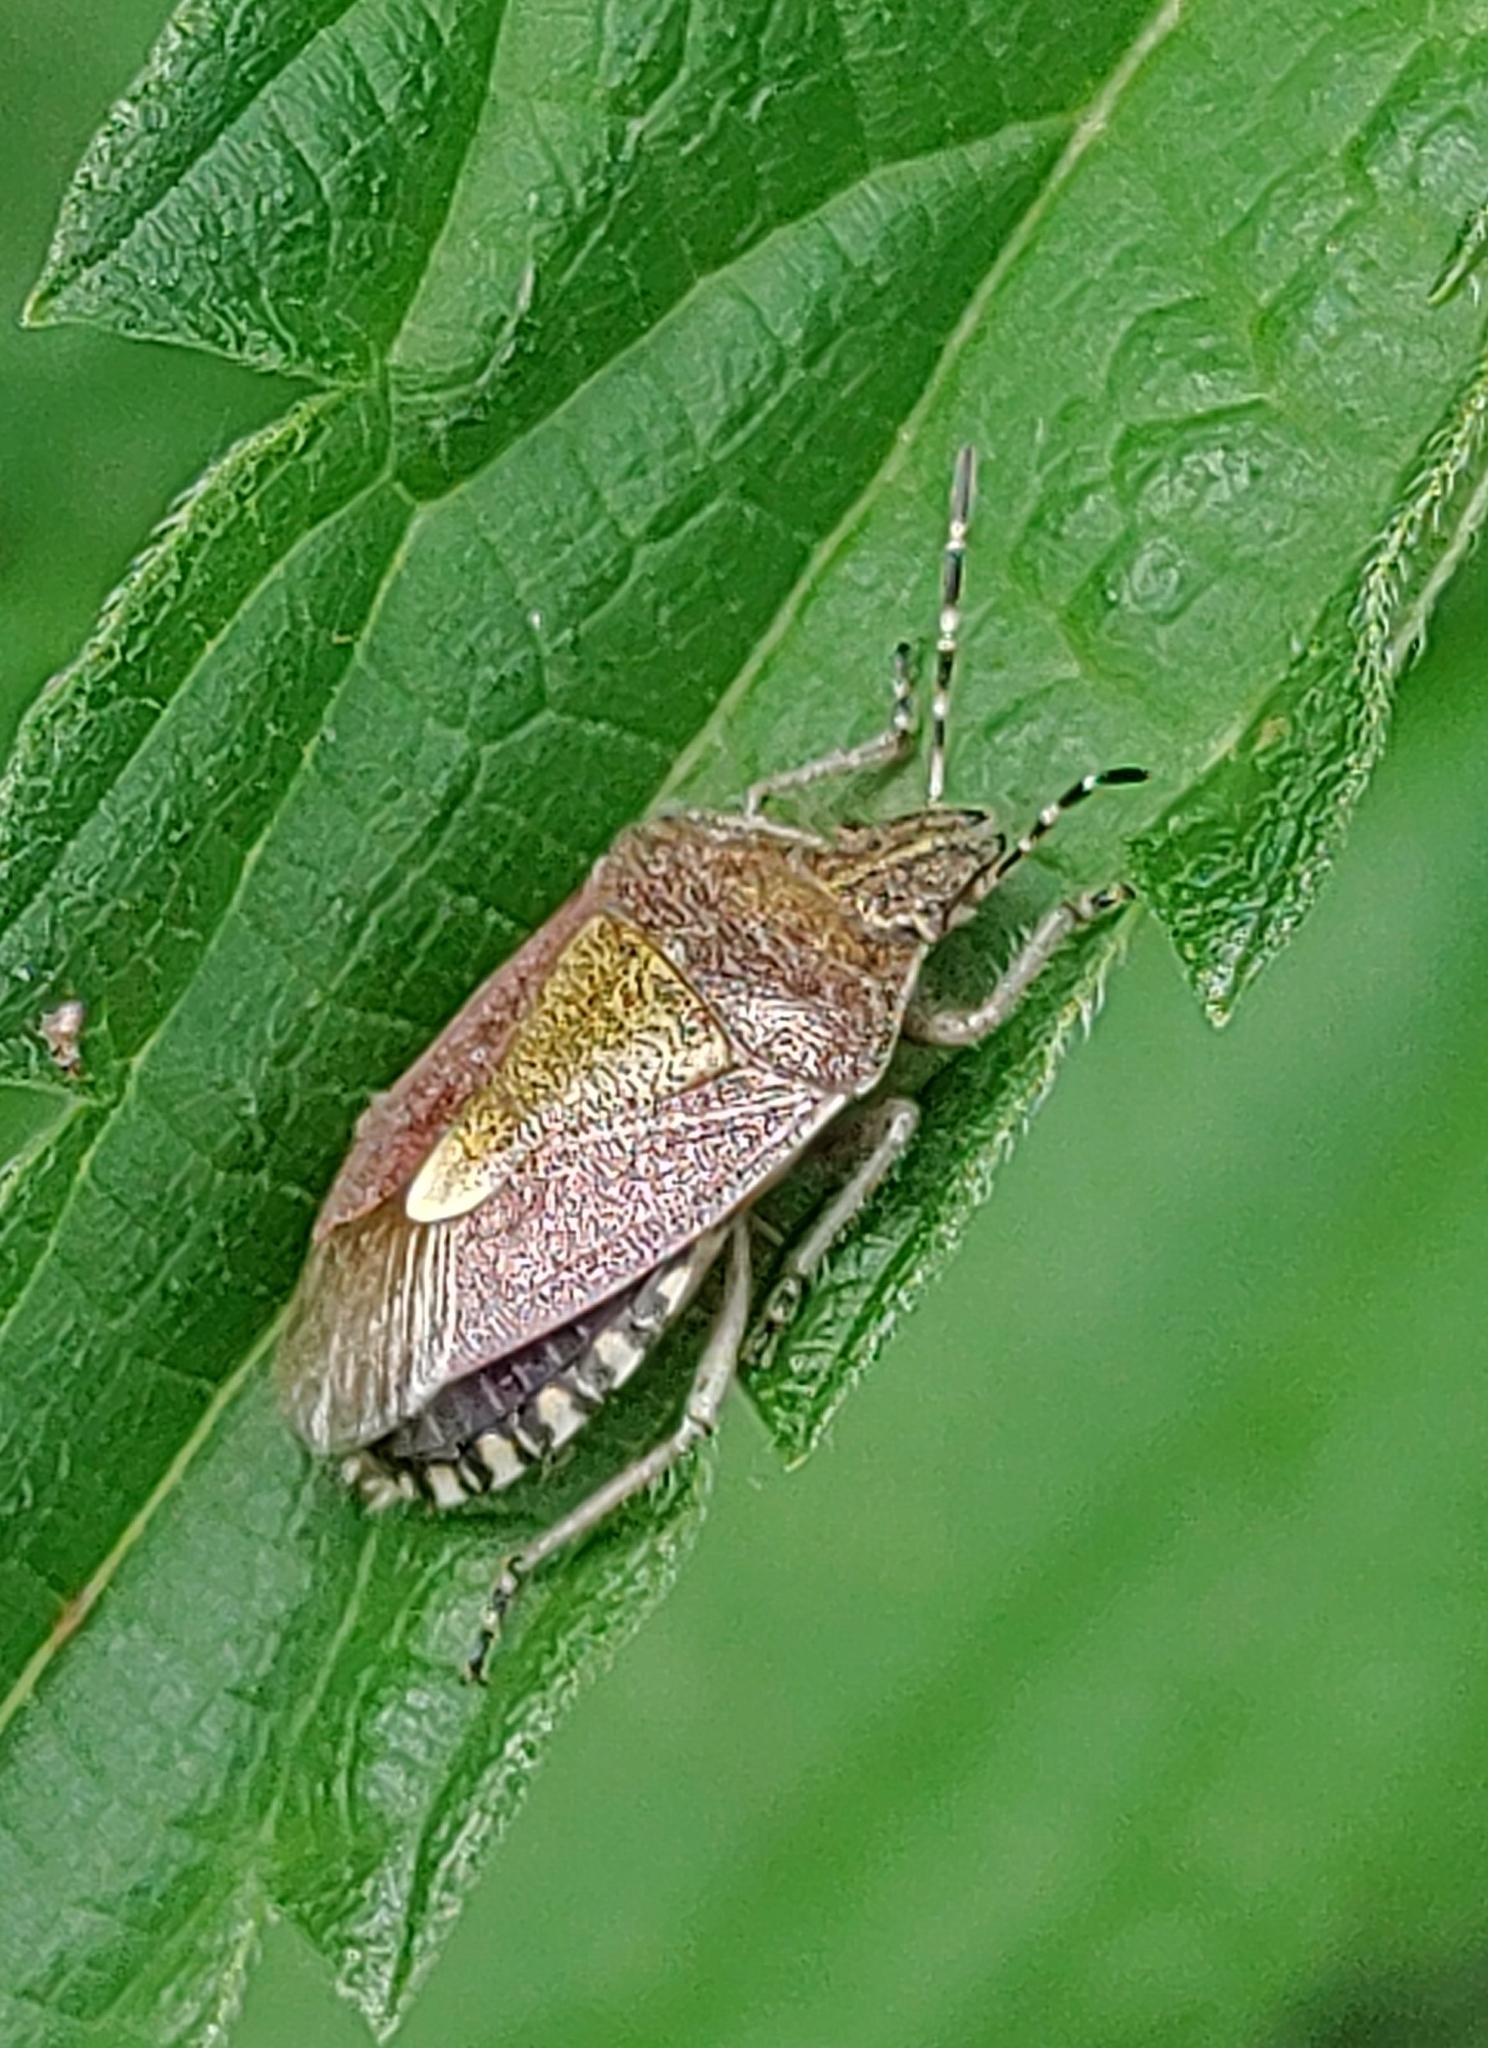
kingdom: Animalia
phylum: Arthropoda
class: Insecta
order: Hemiptera
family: Pentatomidae
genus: Dolycoris
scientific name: Dolycoris baccarum
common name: Sloe bug
